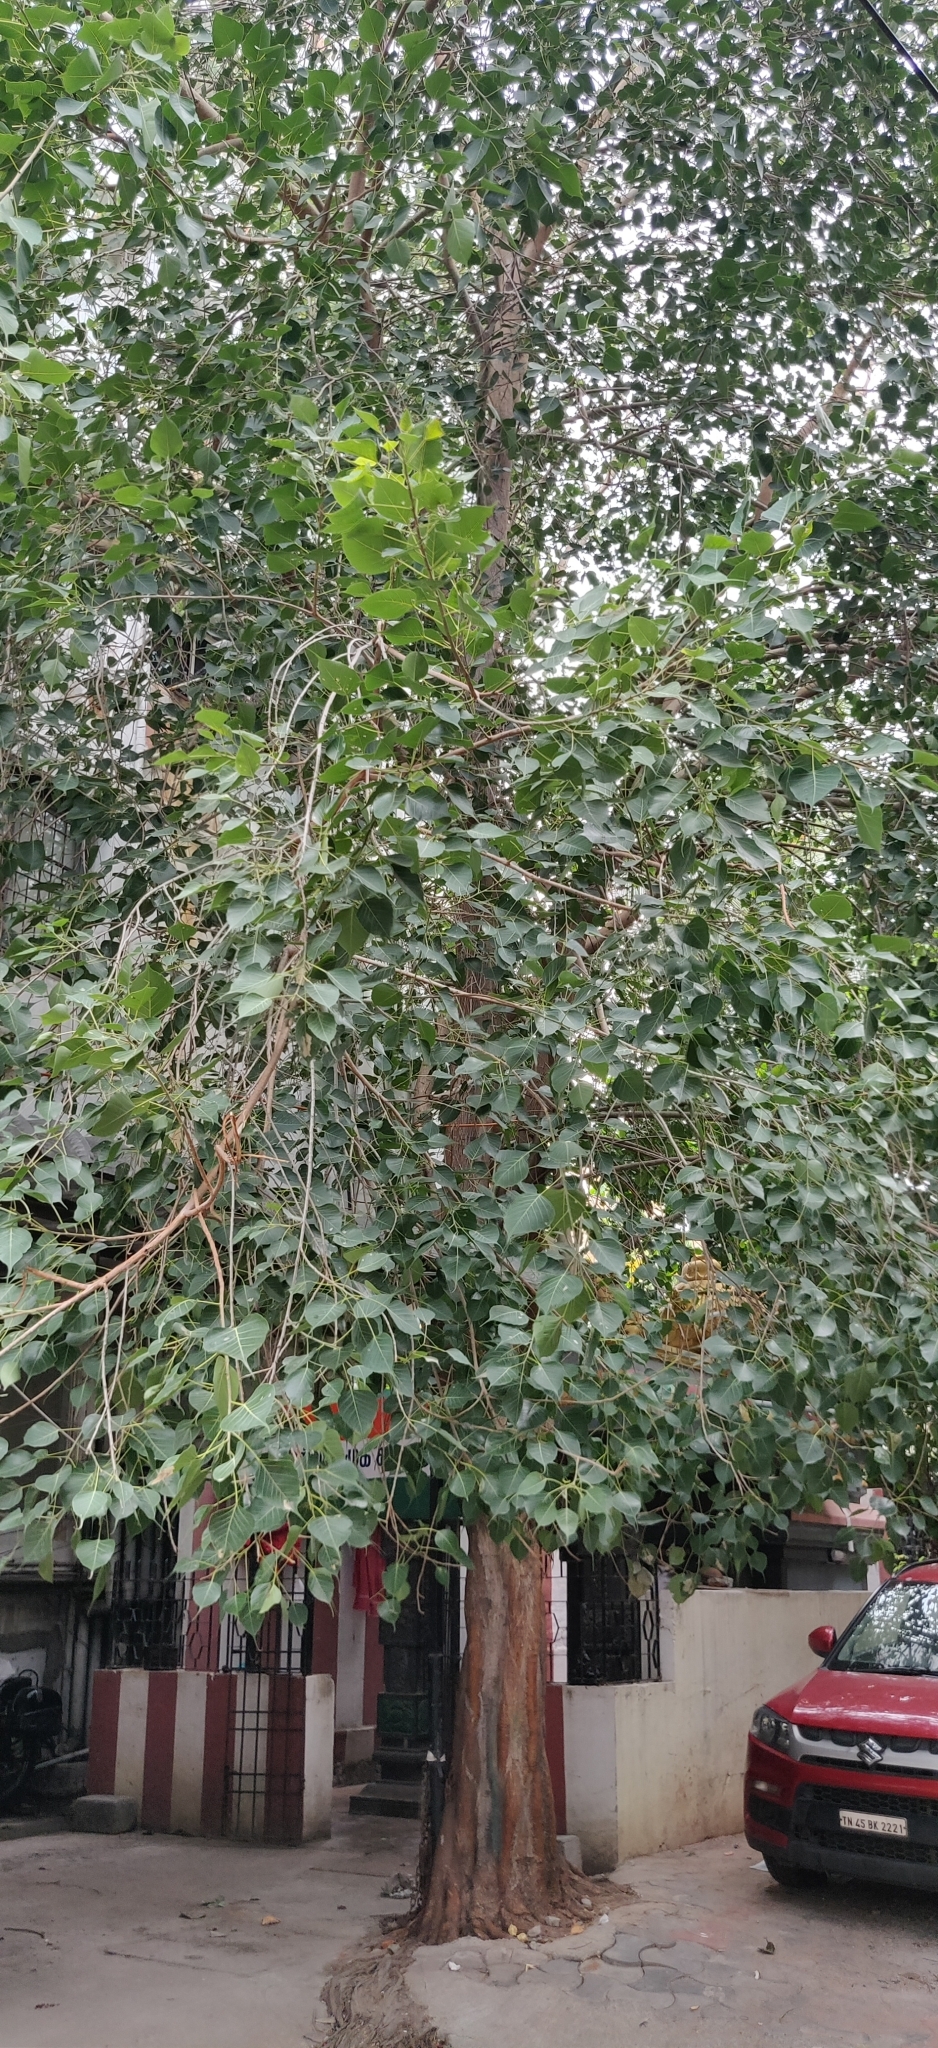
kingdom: Plantae
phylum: Tracheophyta
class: Magnoliopsida
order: Rosales
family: Moraceae
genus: Ficus
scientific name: Ficus religiosa
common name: Bodhi tree
